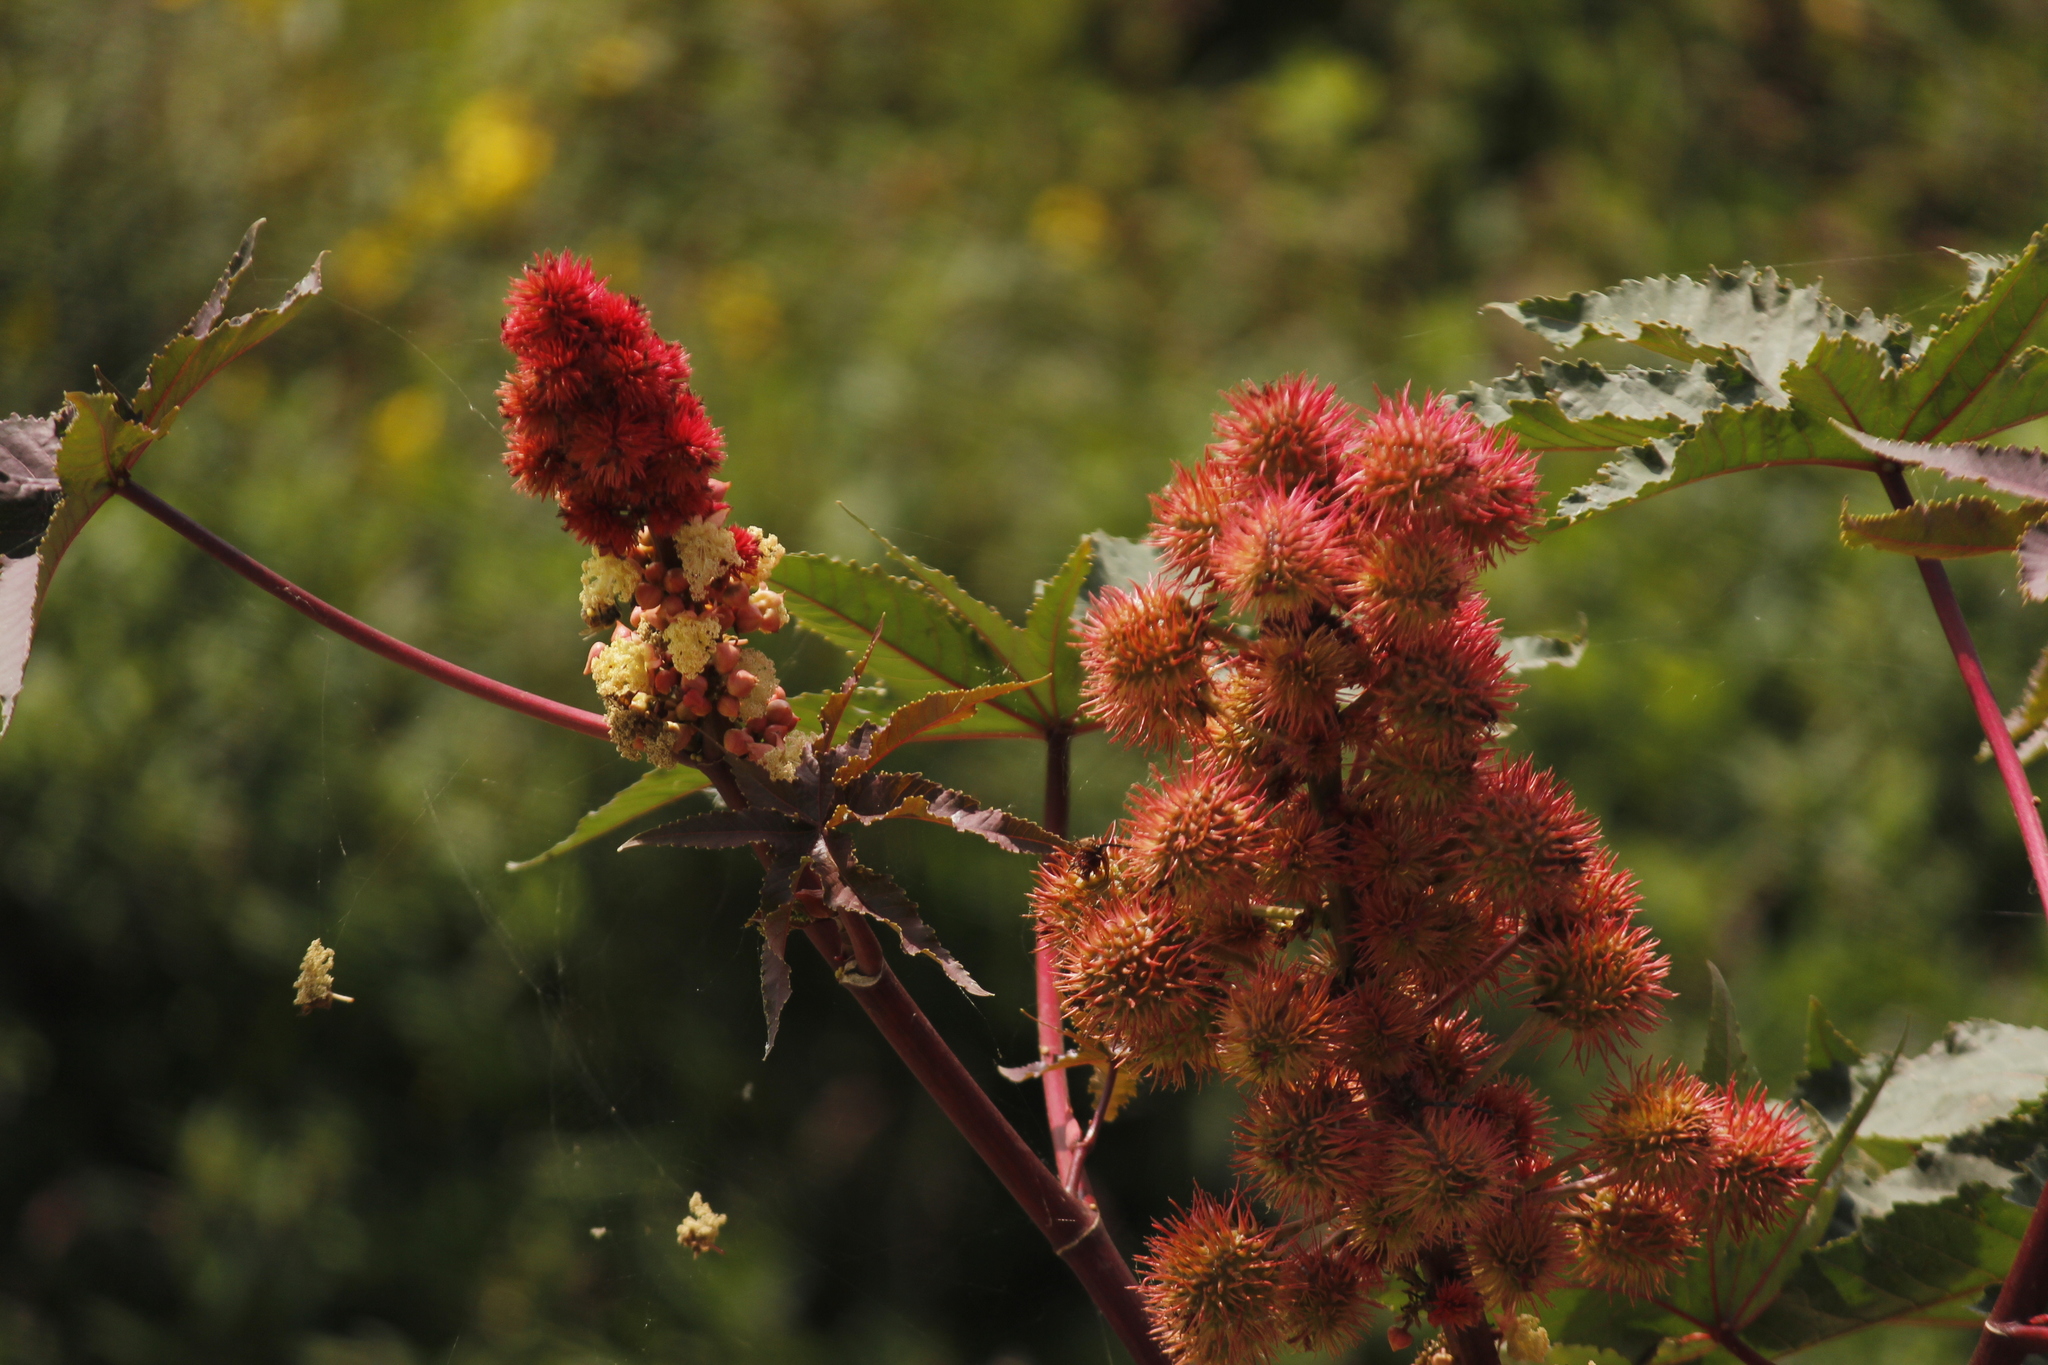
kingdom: Plantae
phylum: Tracheophyta
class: Magnoliopsida
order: Malpighiales
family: Euphorbiaceae
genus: Ricinus
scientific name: Ricinus communis
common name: Castor-oil-plant
